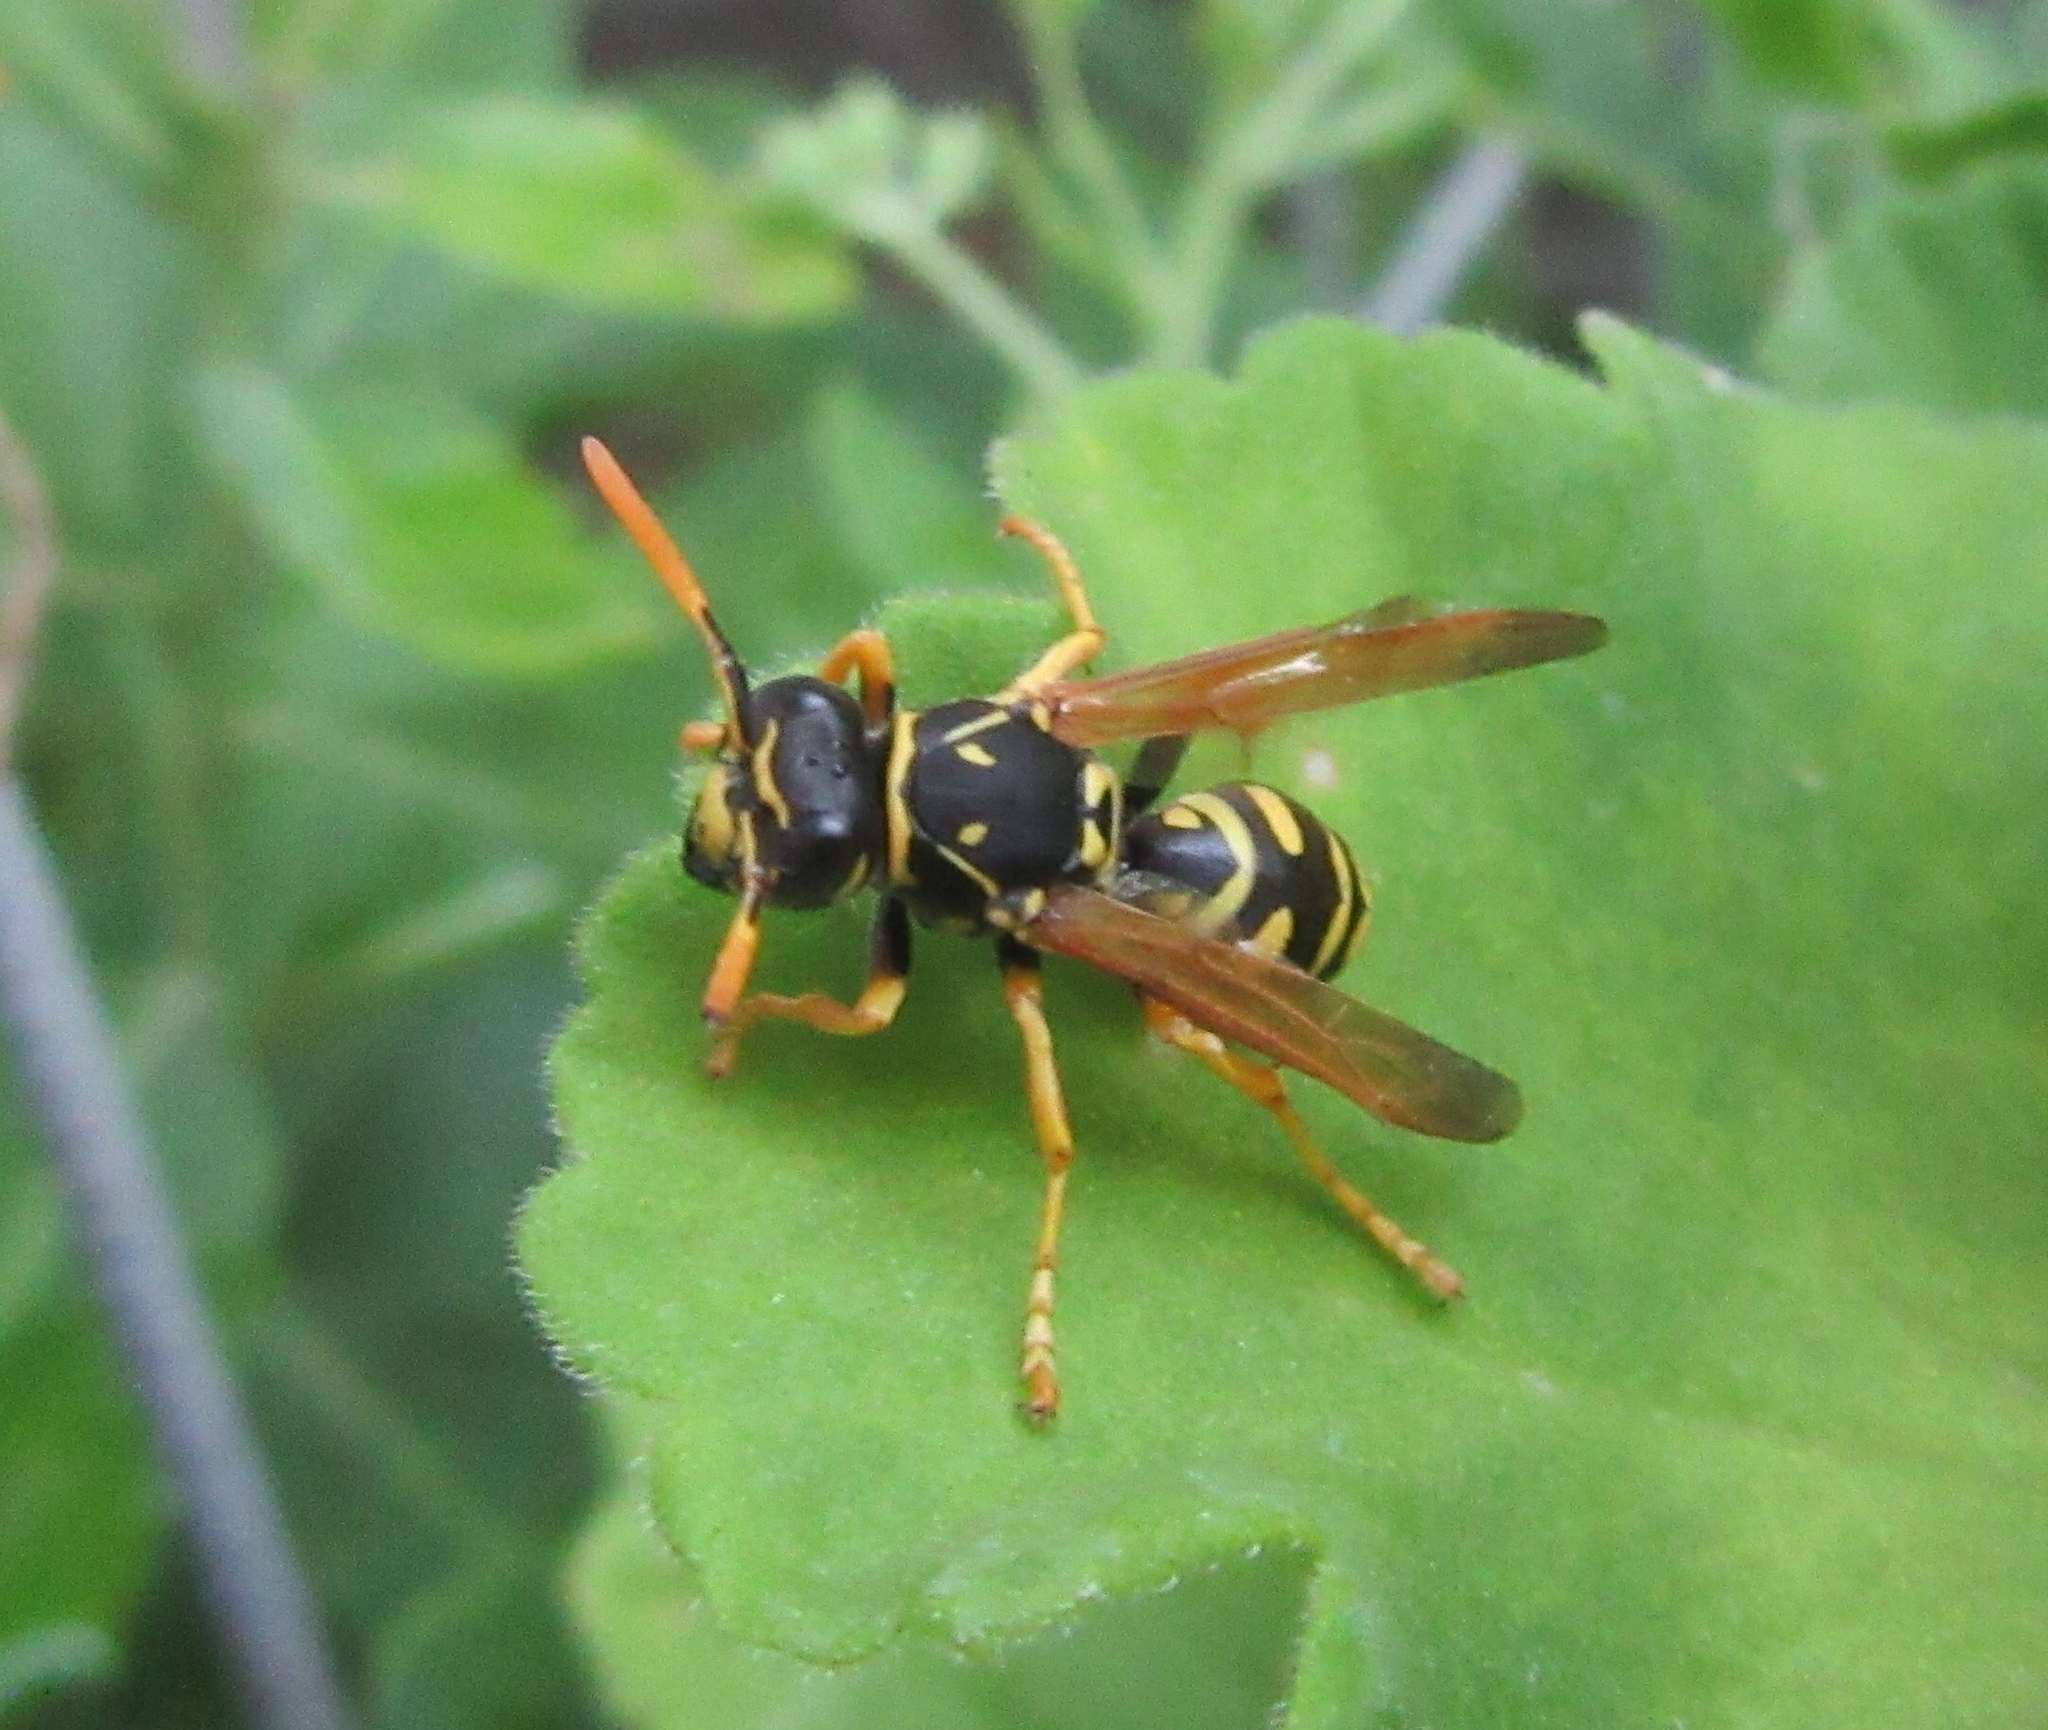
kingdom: Animalia
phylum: Arthropoda
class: Insecta
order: Hymenoptera
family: Eumenidae
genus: Polistes
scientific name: Polistes dominula
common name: Paper wasp
